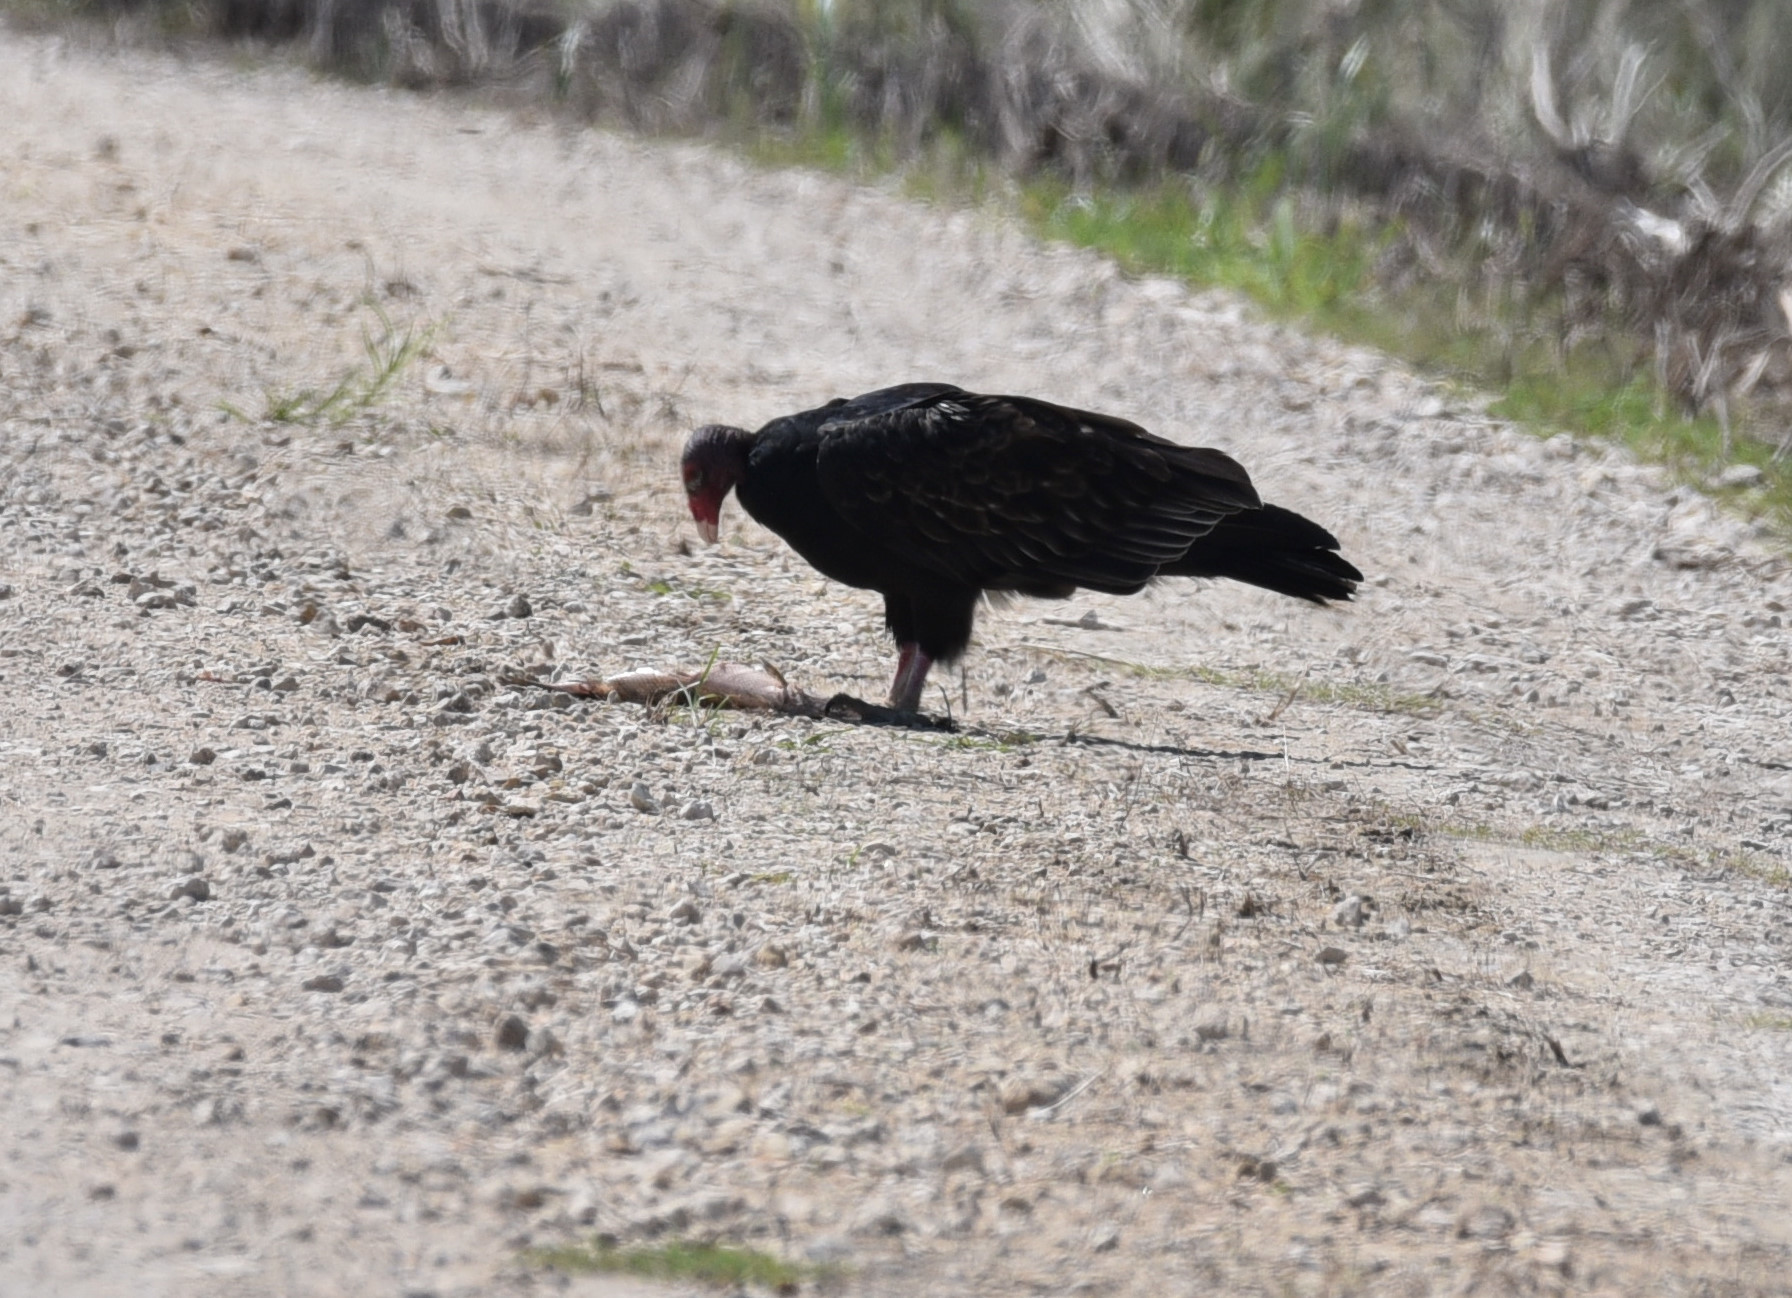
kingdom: Animalia
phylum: Chordata
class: Aves
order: Accipitriformes
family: Cathartidae
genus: Cathartes
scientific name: Cathartes aura
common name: Turkey vulture
